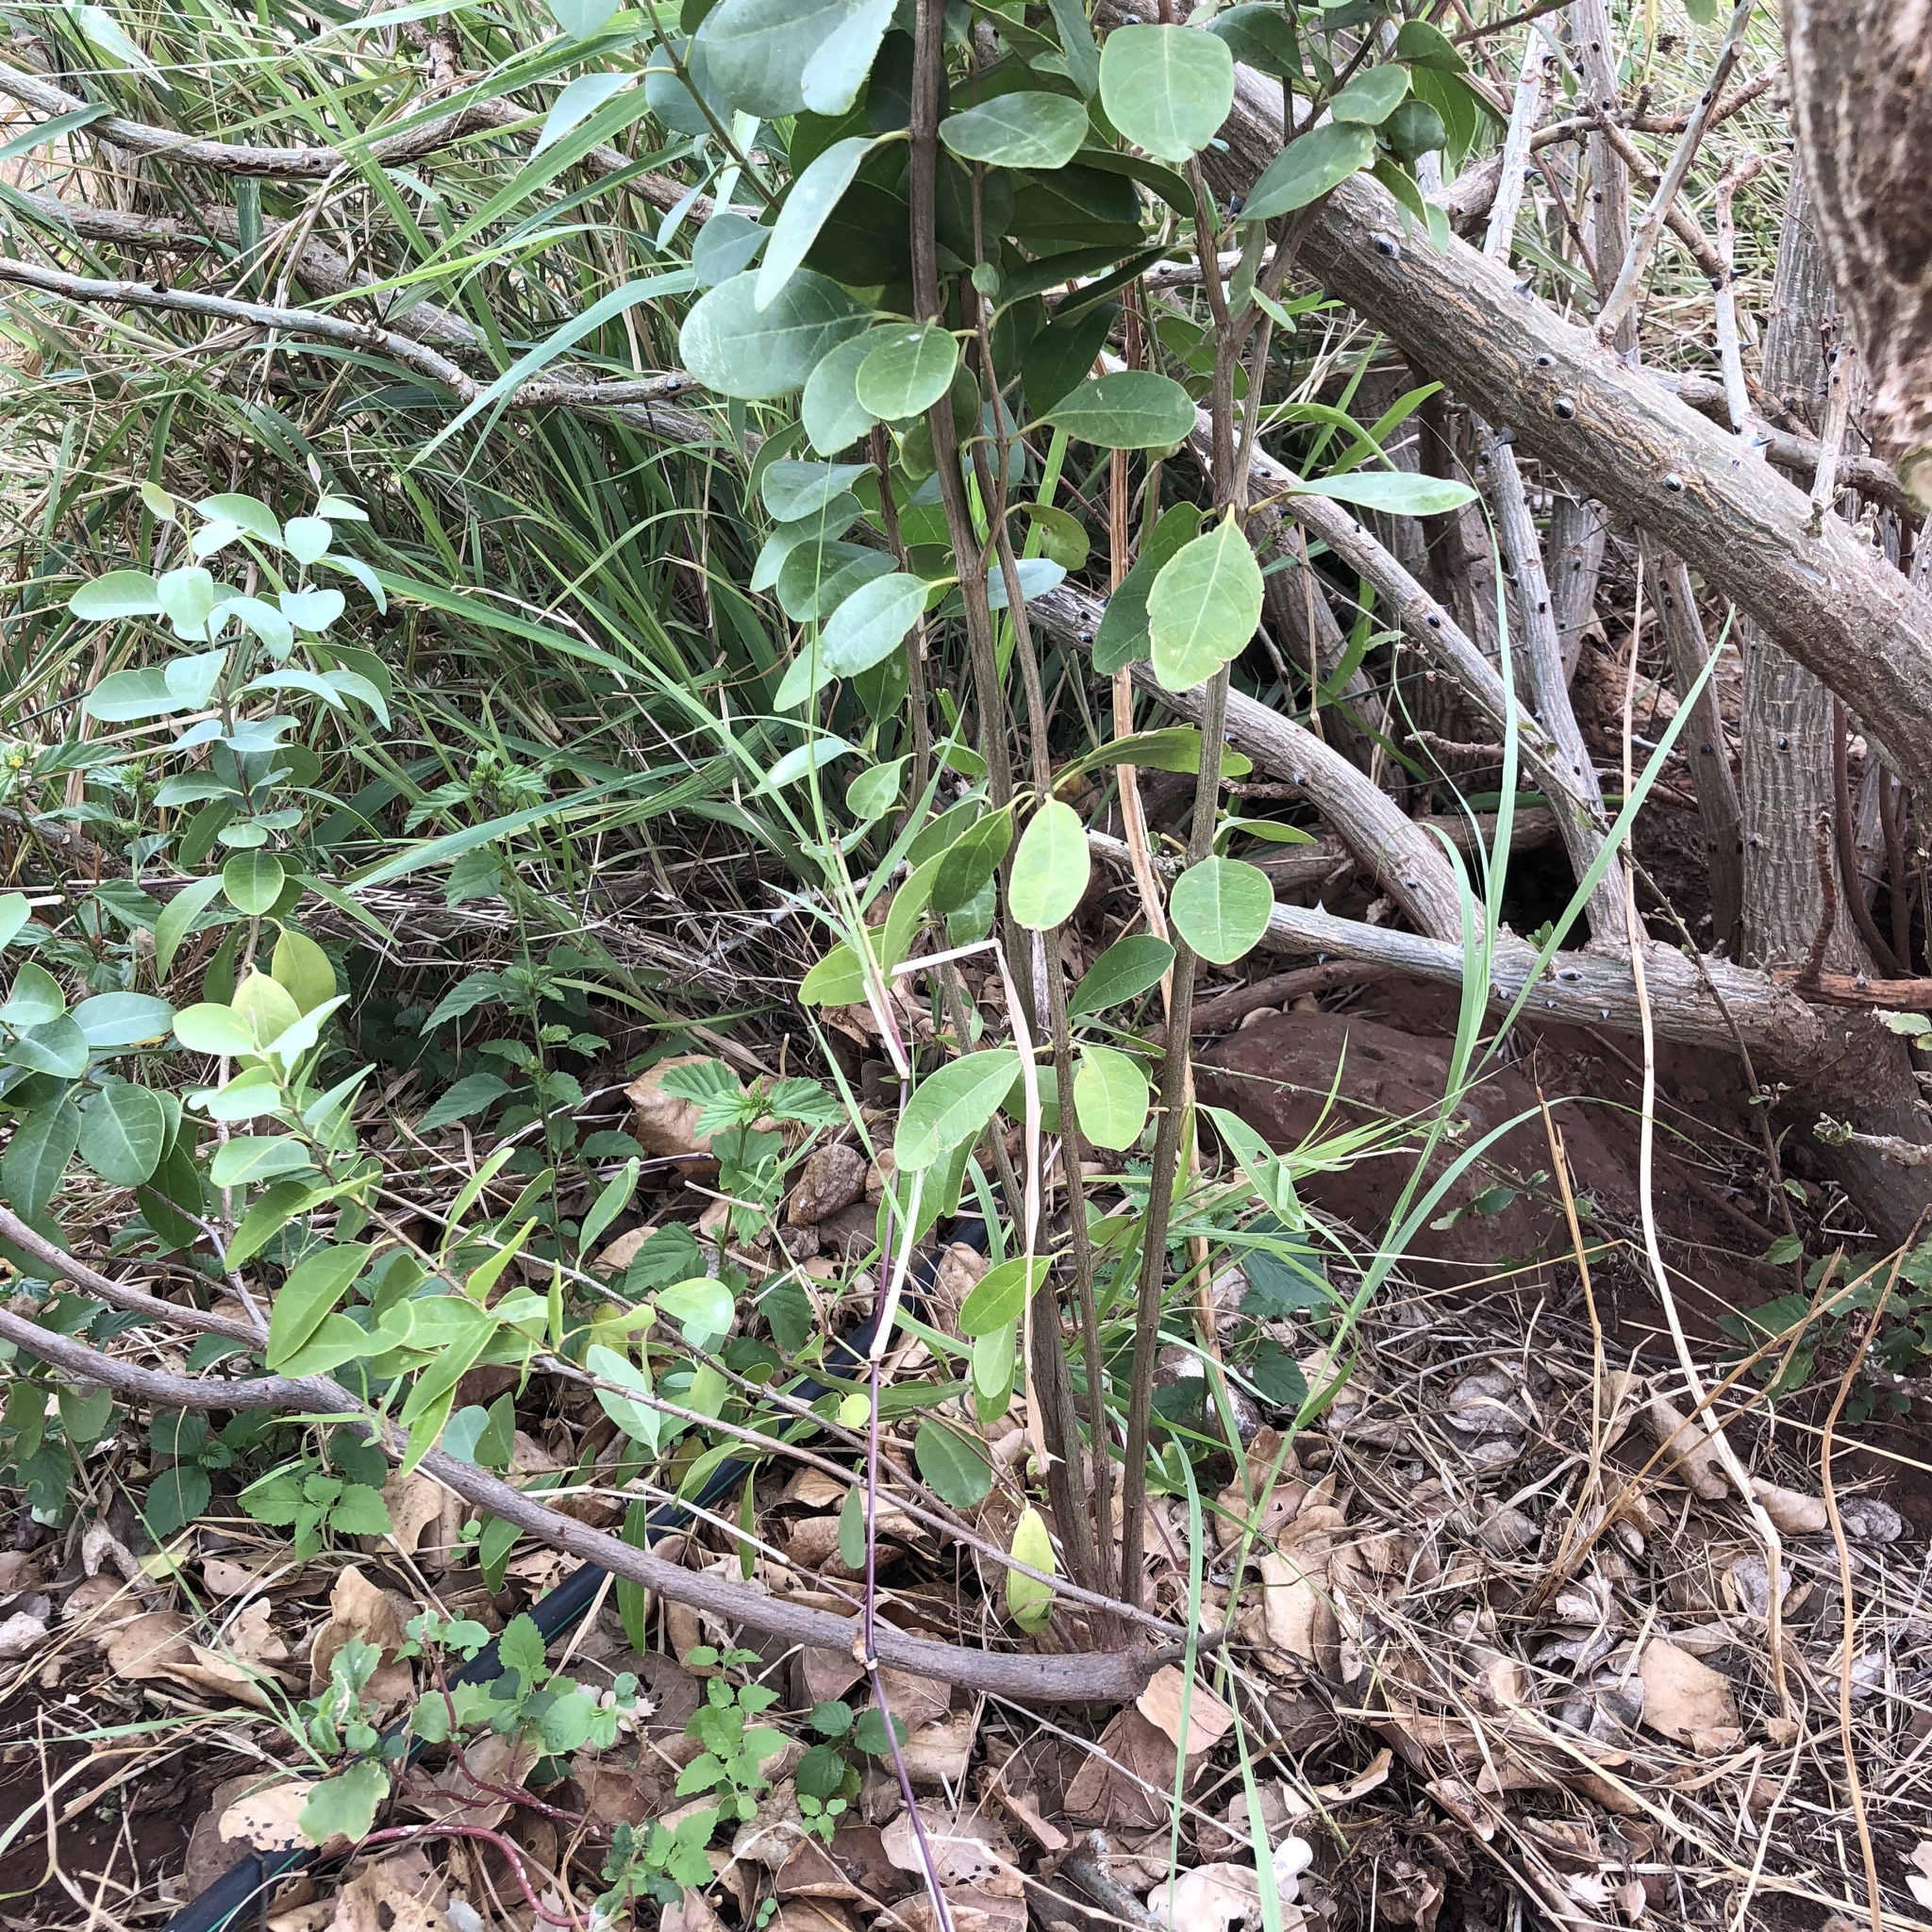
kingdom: Plantae
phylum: Tracheophyta
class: Magnoliopsida
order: Santalales
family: Santalaceae
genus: Santalum
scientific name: Santalum ellipticum
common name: Coast sandalwood
